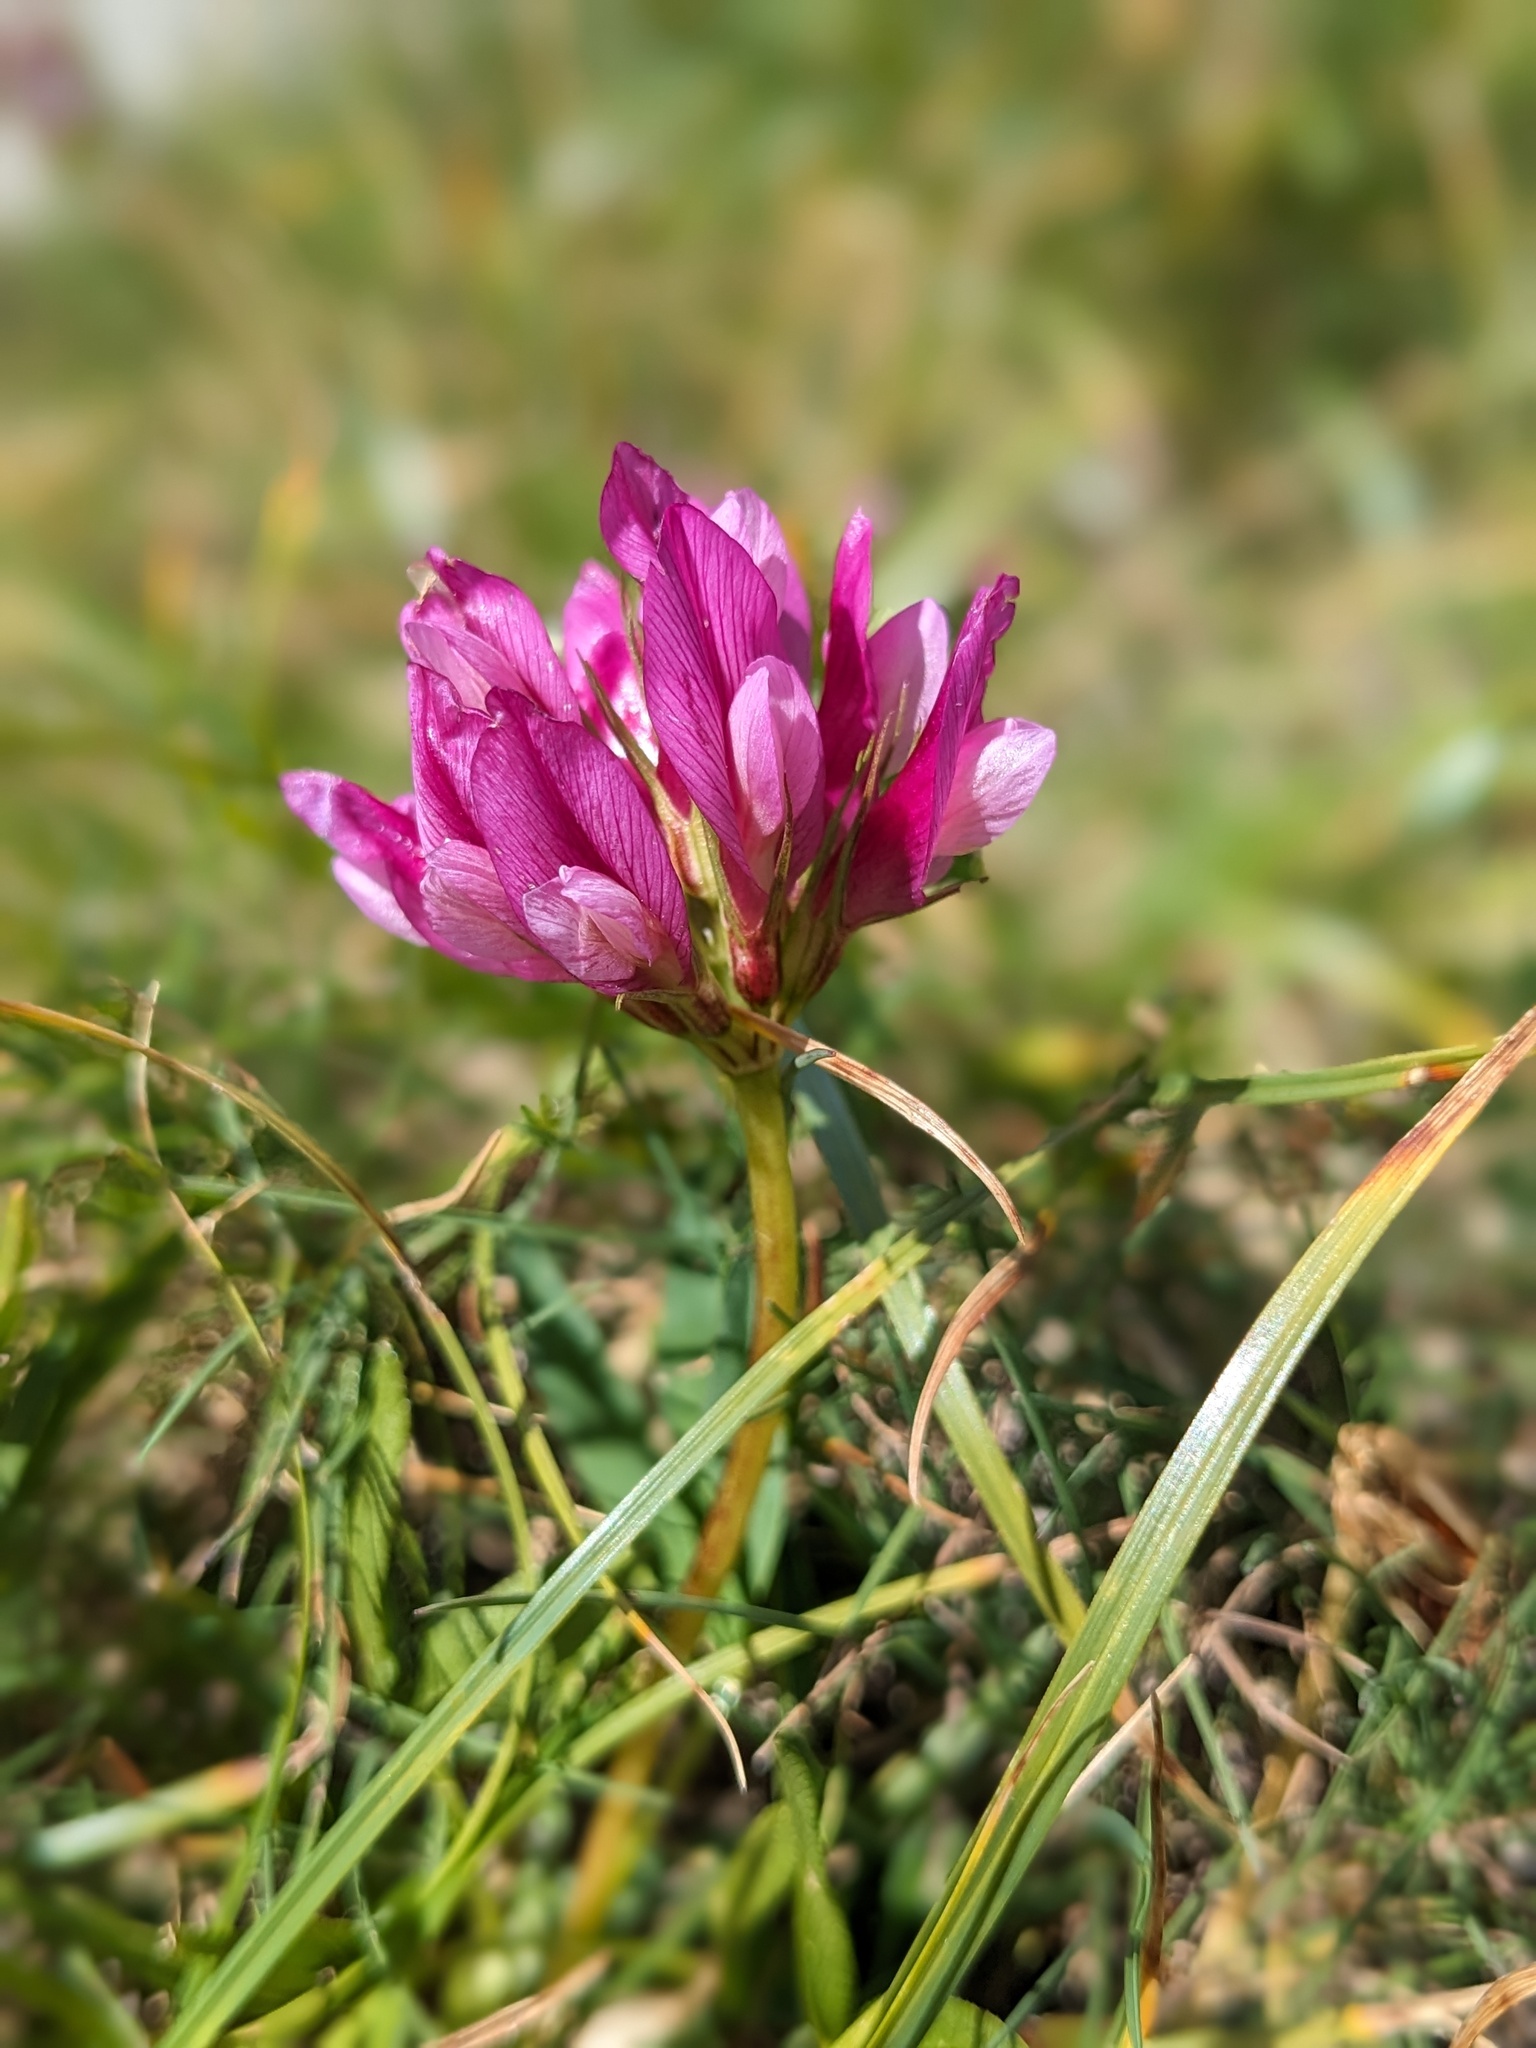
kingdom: Plantae
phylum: Tracheophyta
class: Magnoliopsida
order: Fabales
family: Fabaceae
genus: Trifolium
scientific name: Trifolium alpinum
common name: Alpine clover
